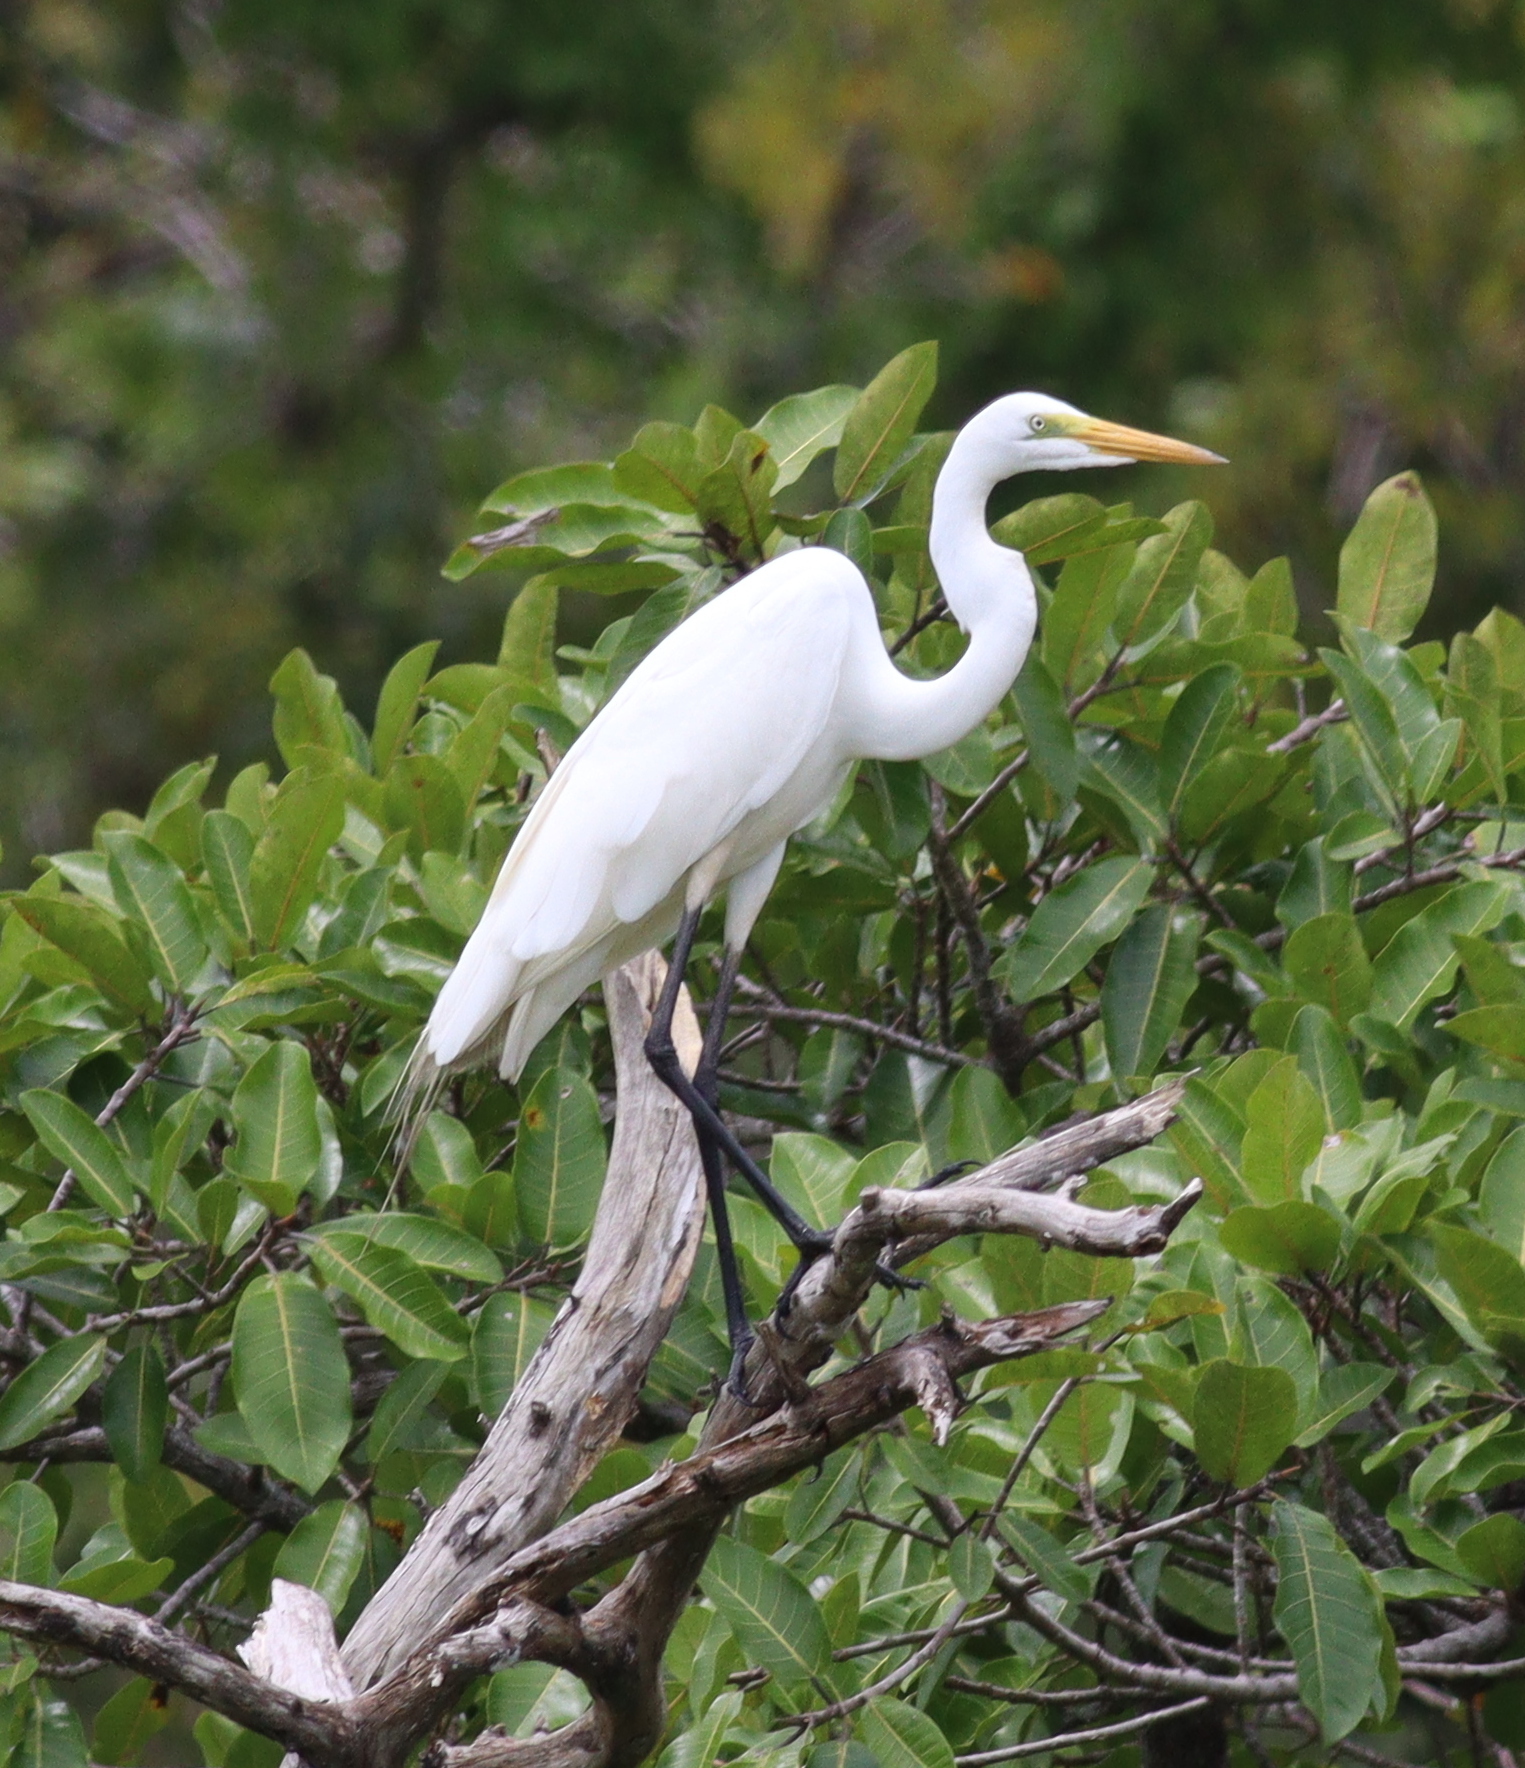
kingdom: Animalia
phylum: Chordata
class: Aves
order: Pelecaniformes
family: Ardeidae
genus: Ardea
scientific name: Ardea alba
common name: Great egret
